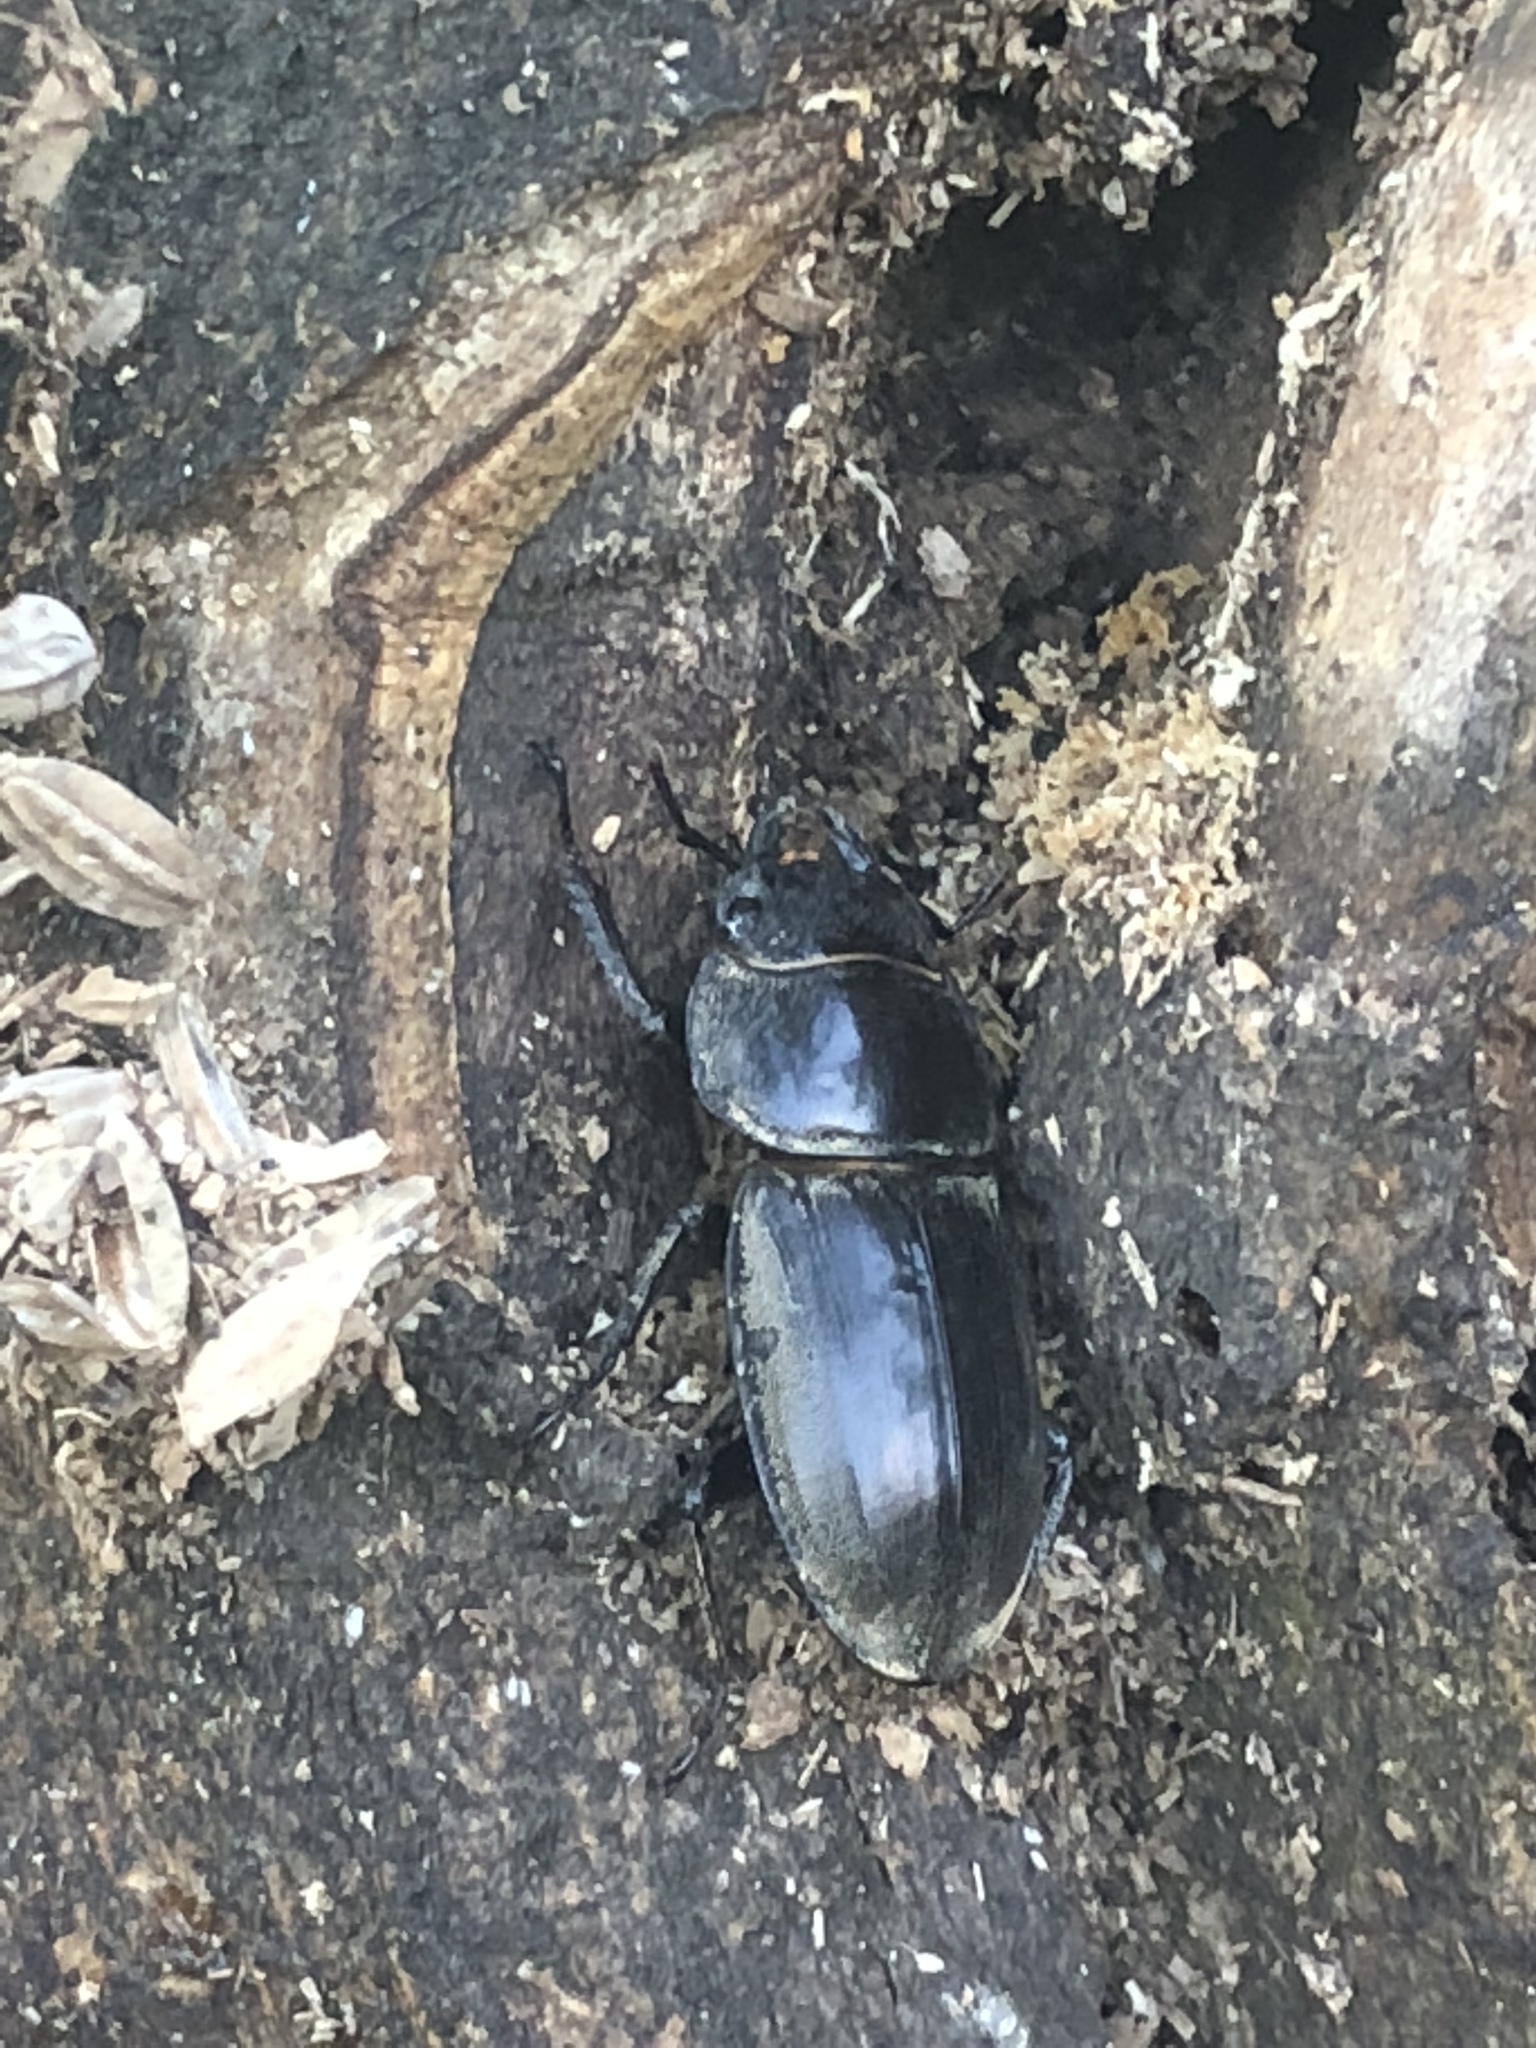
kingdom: Animalia
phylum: Arthropoda
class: Insecta
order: Coleoptera
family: Lucanidae
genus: Serrognathus
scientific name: Serrognathus titanus
